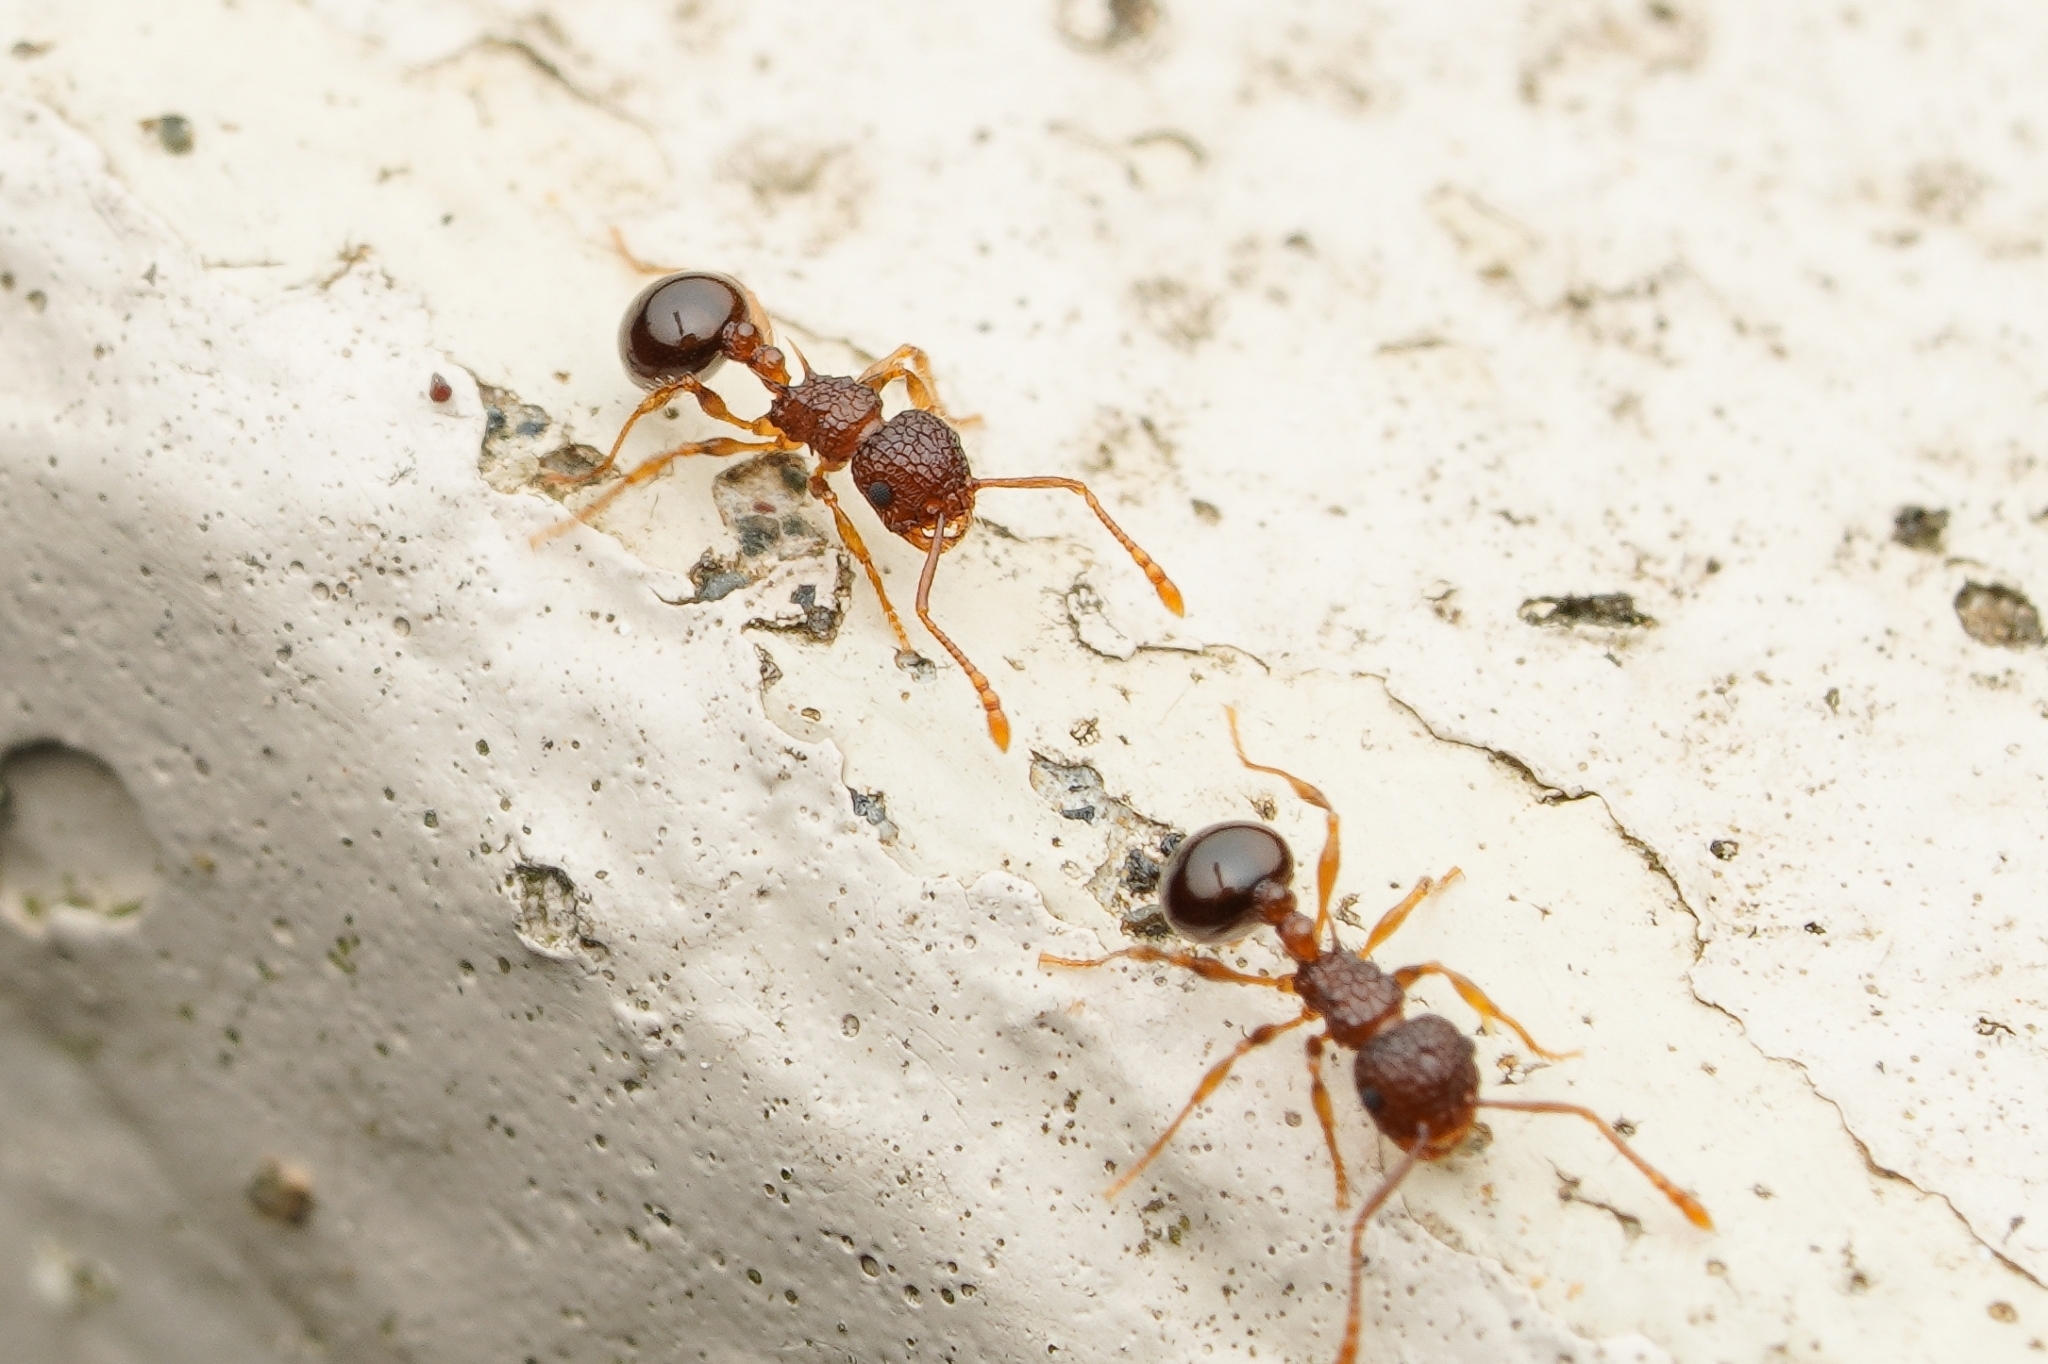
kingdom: Animalia
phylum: Arthropoda
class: Insecta
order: Hymenoptera
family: Formicidae
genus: Pristomyrmex
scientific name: Pristomyrmex punctatus
